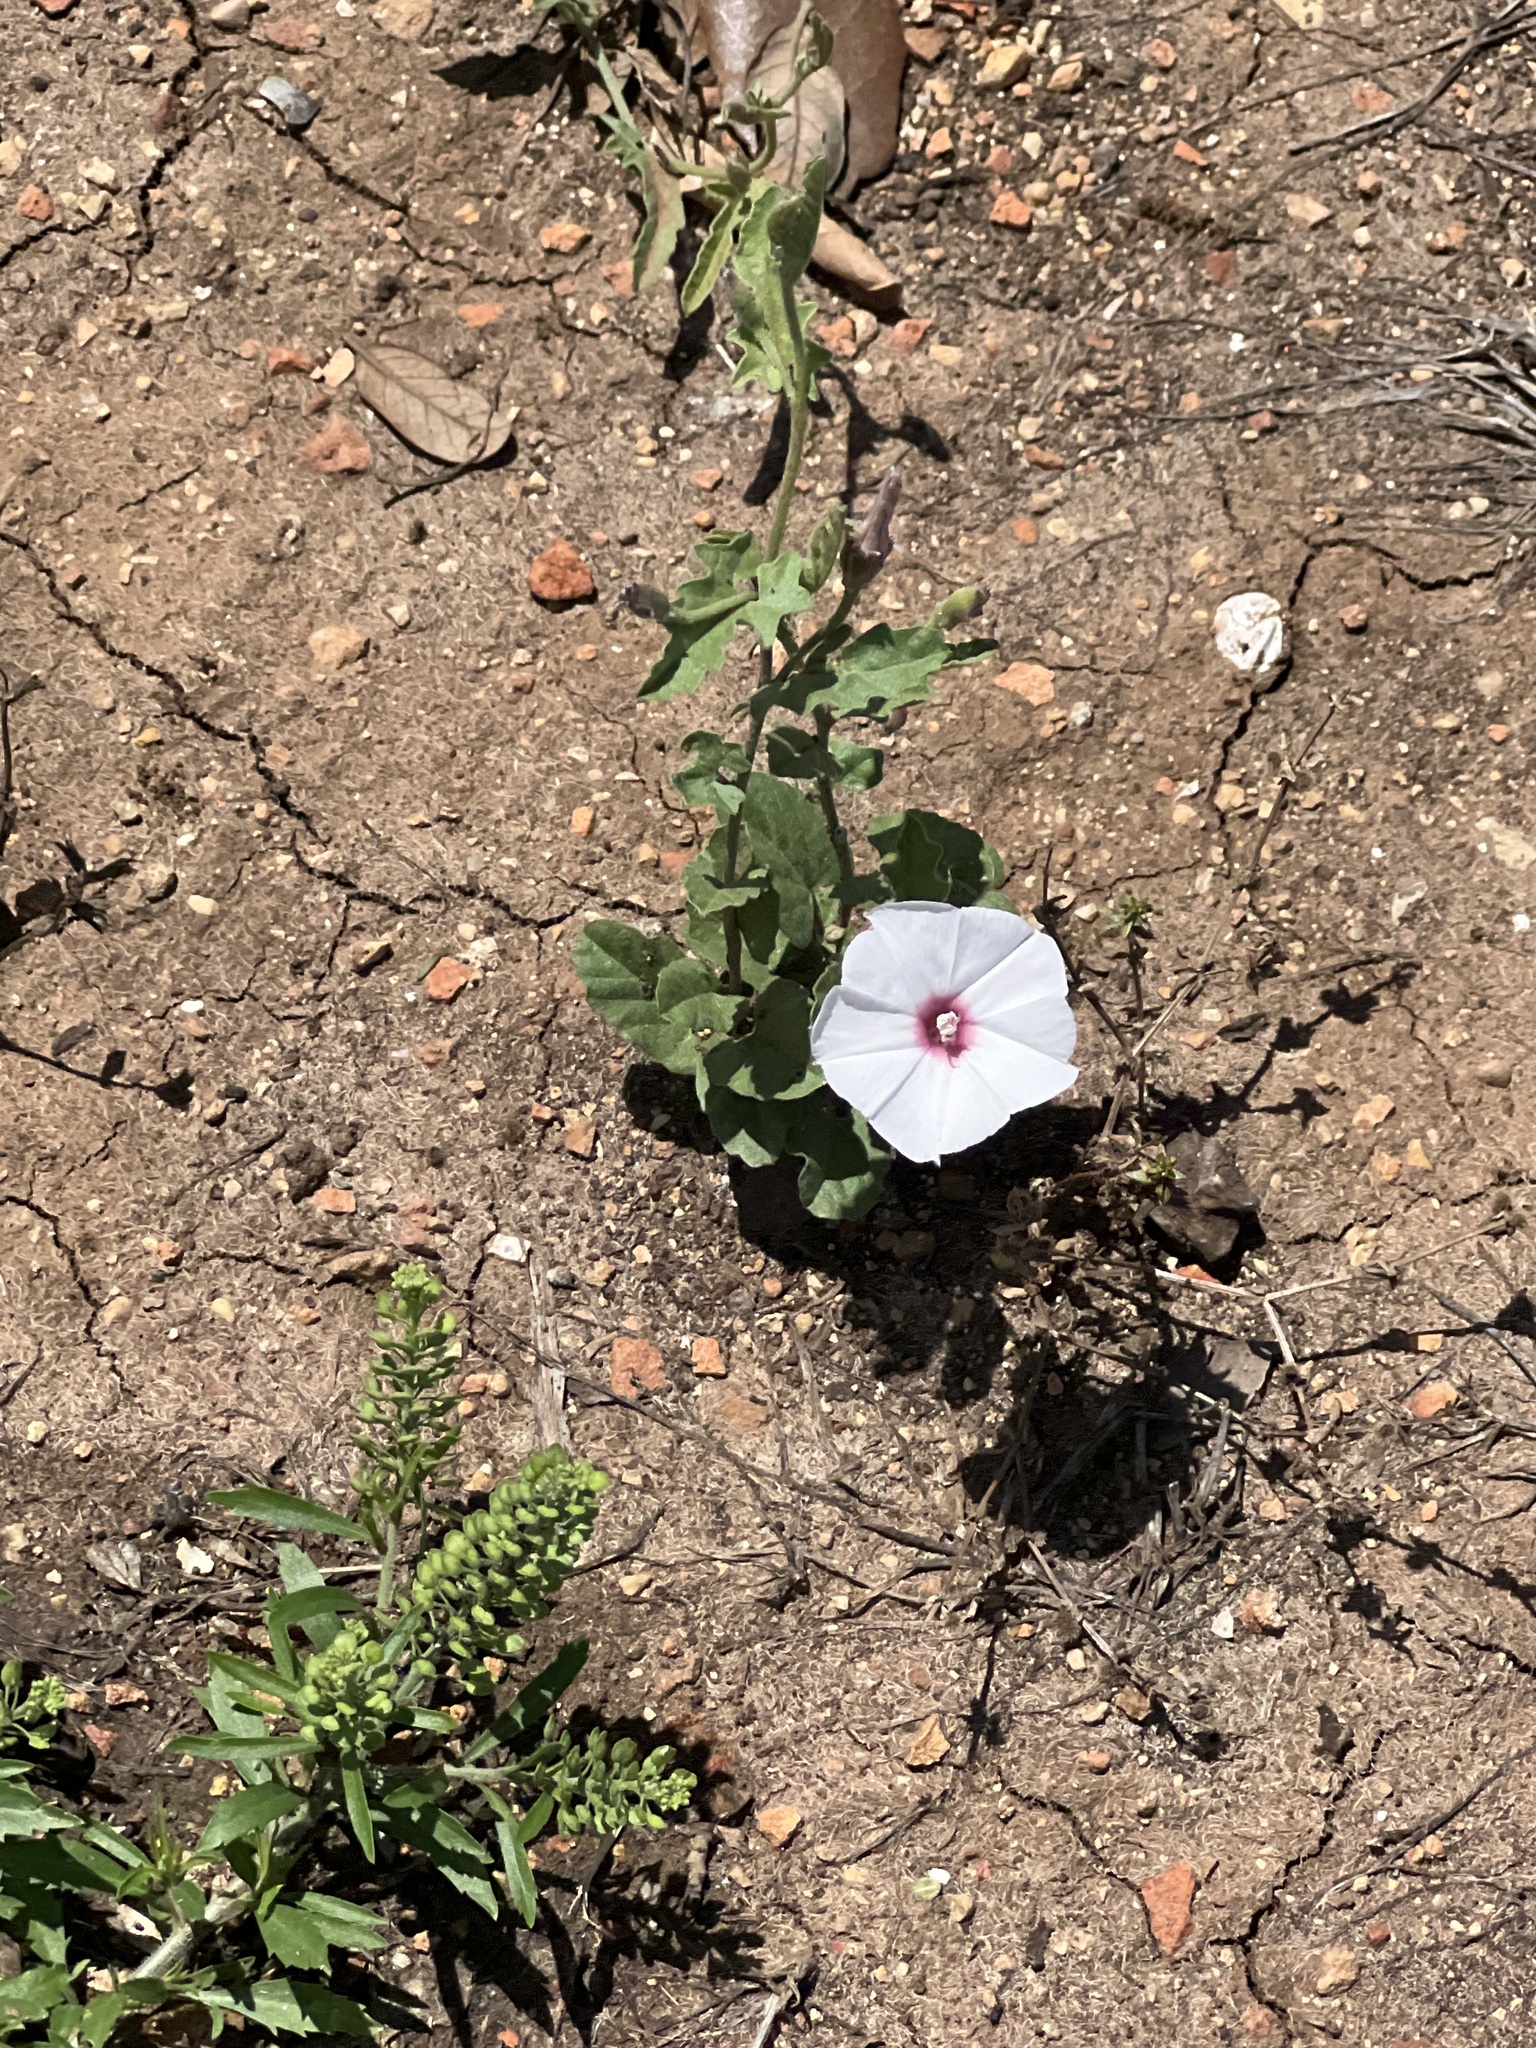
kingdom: Plantae
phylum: Tracheophyta
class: Magnoliopsida
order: Solanales
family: Convolvulaceae
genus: Convolvulus
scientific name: Convolvulus equitans
